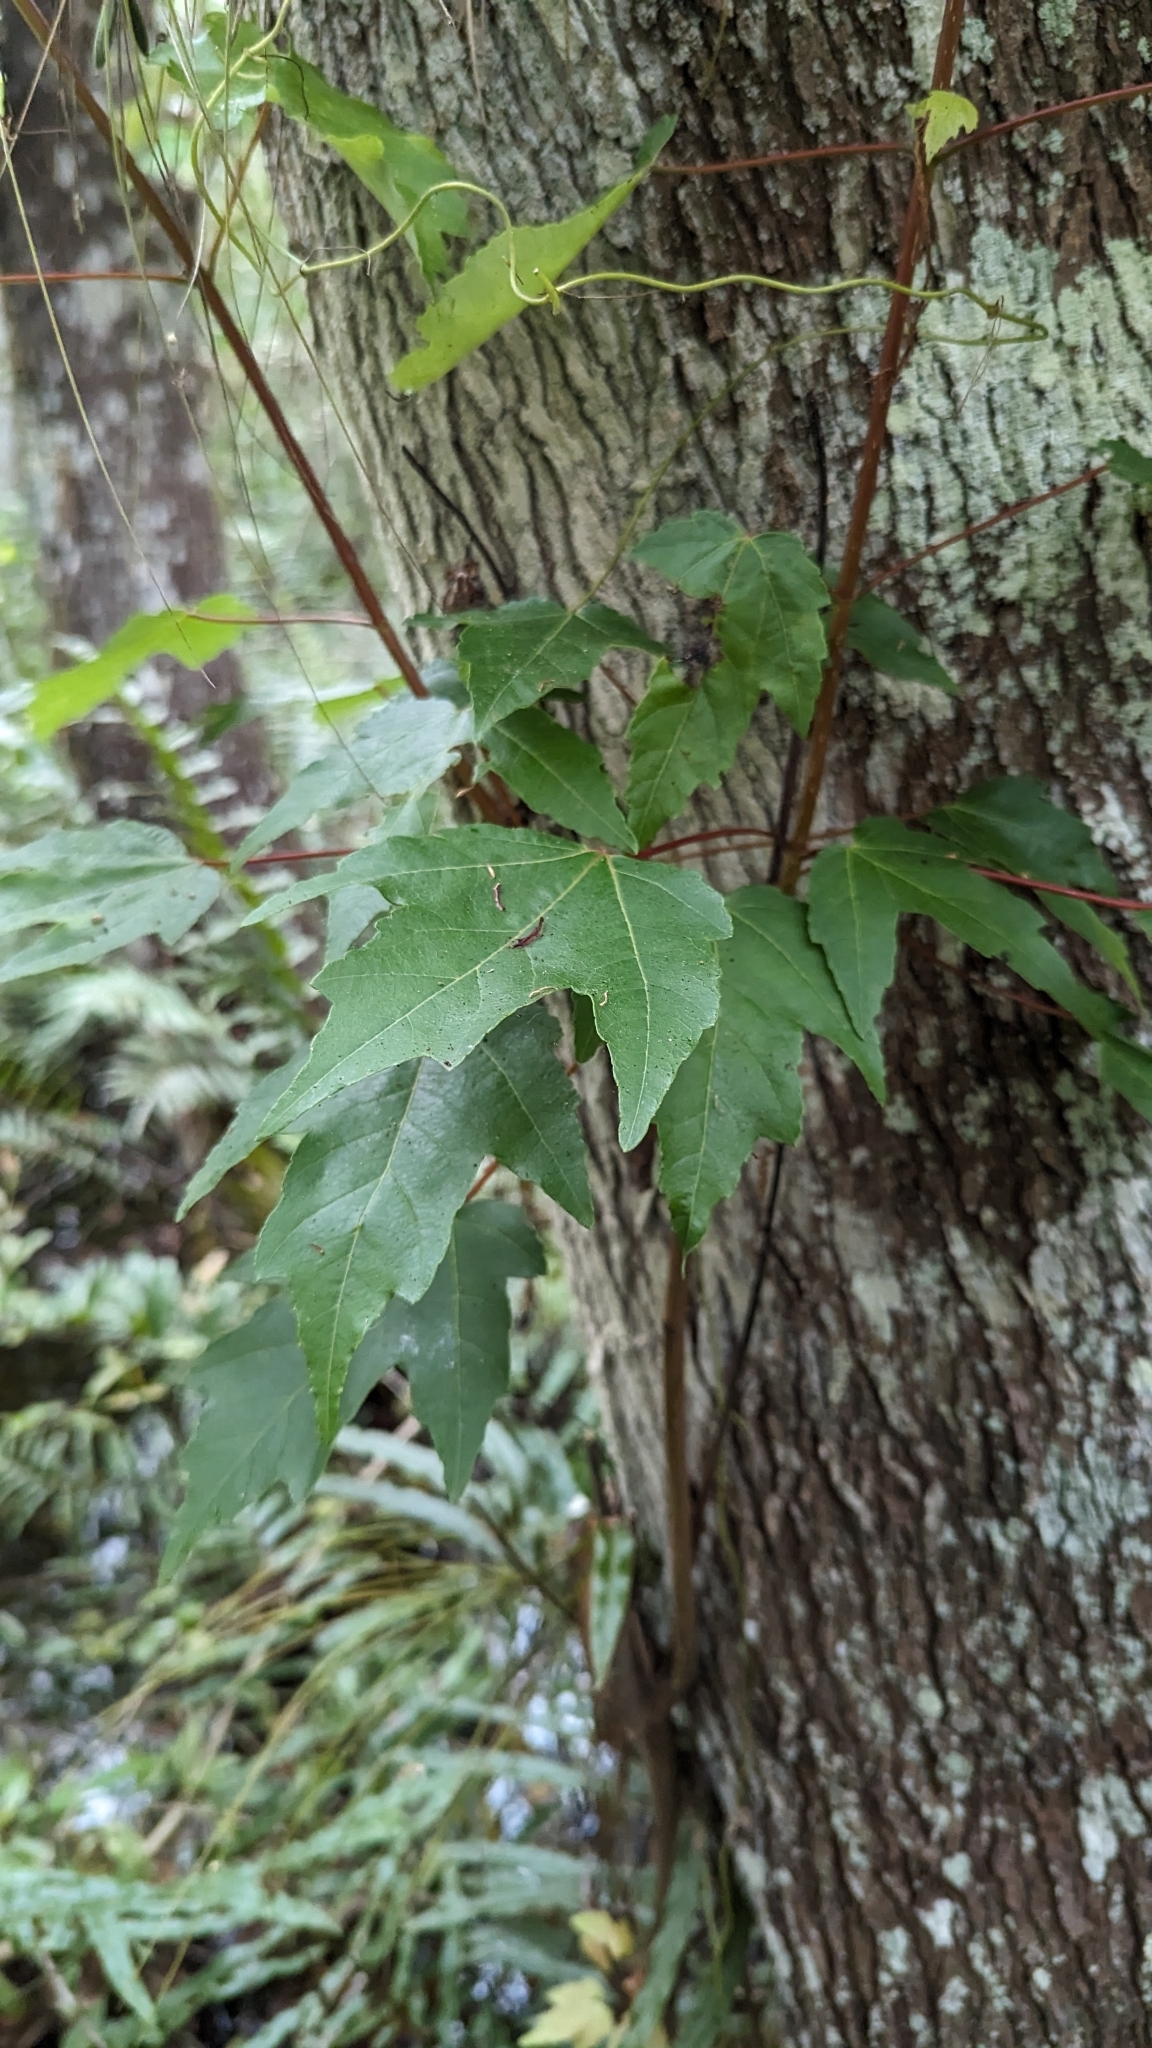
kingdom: Plantae
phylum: Tracheophyta
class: Magnoliopsida
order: Sapindales
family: Sapindaceae
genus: Acer
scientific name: Acer rubrum
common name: Red maple
